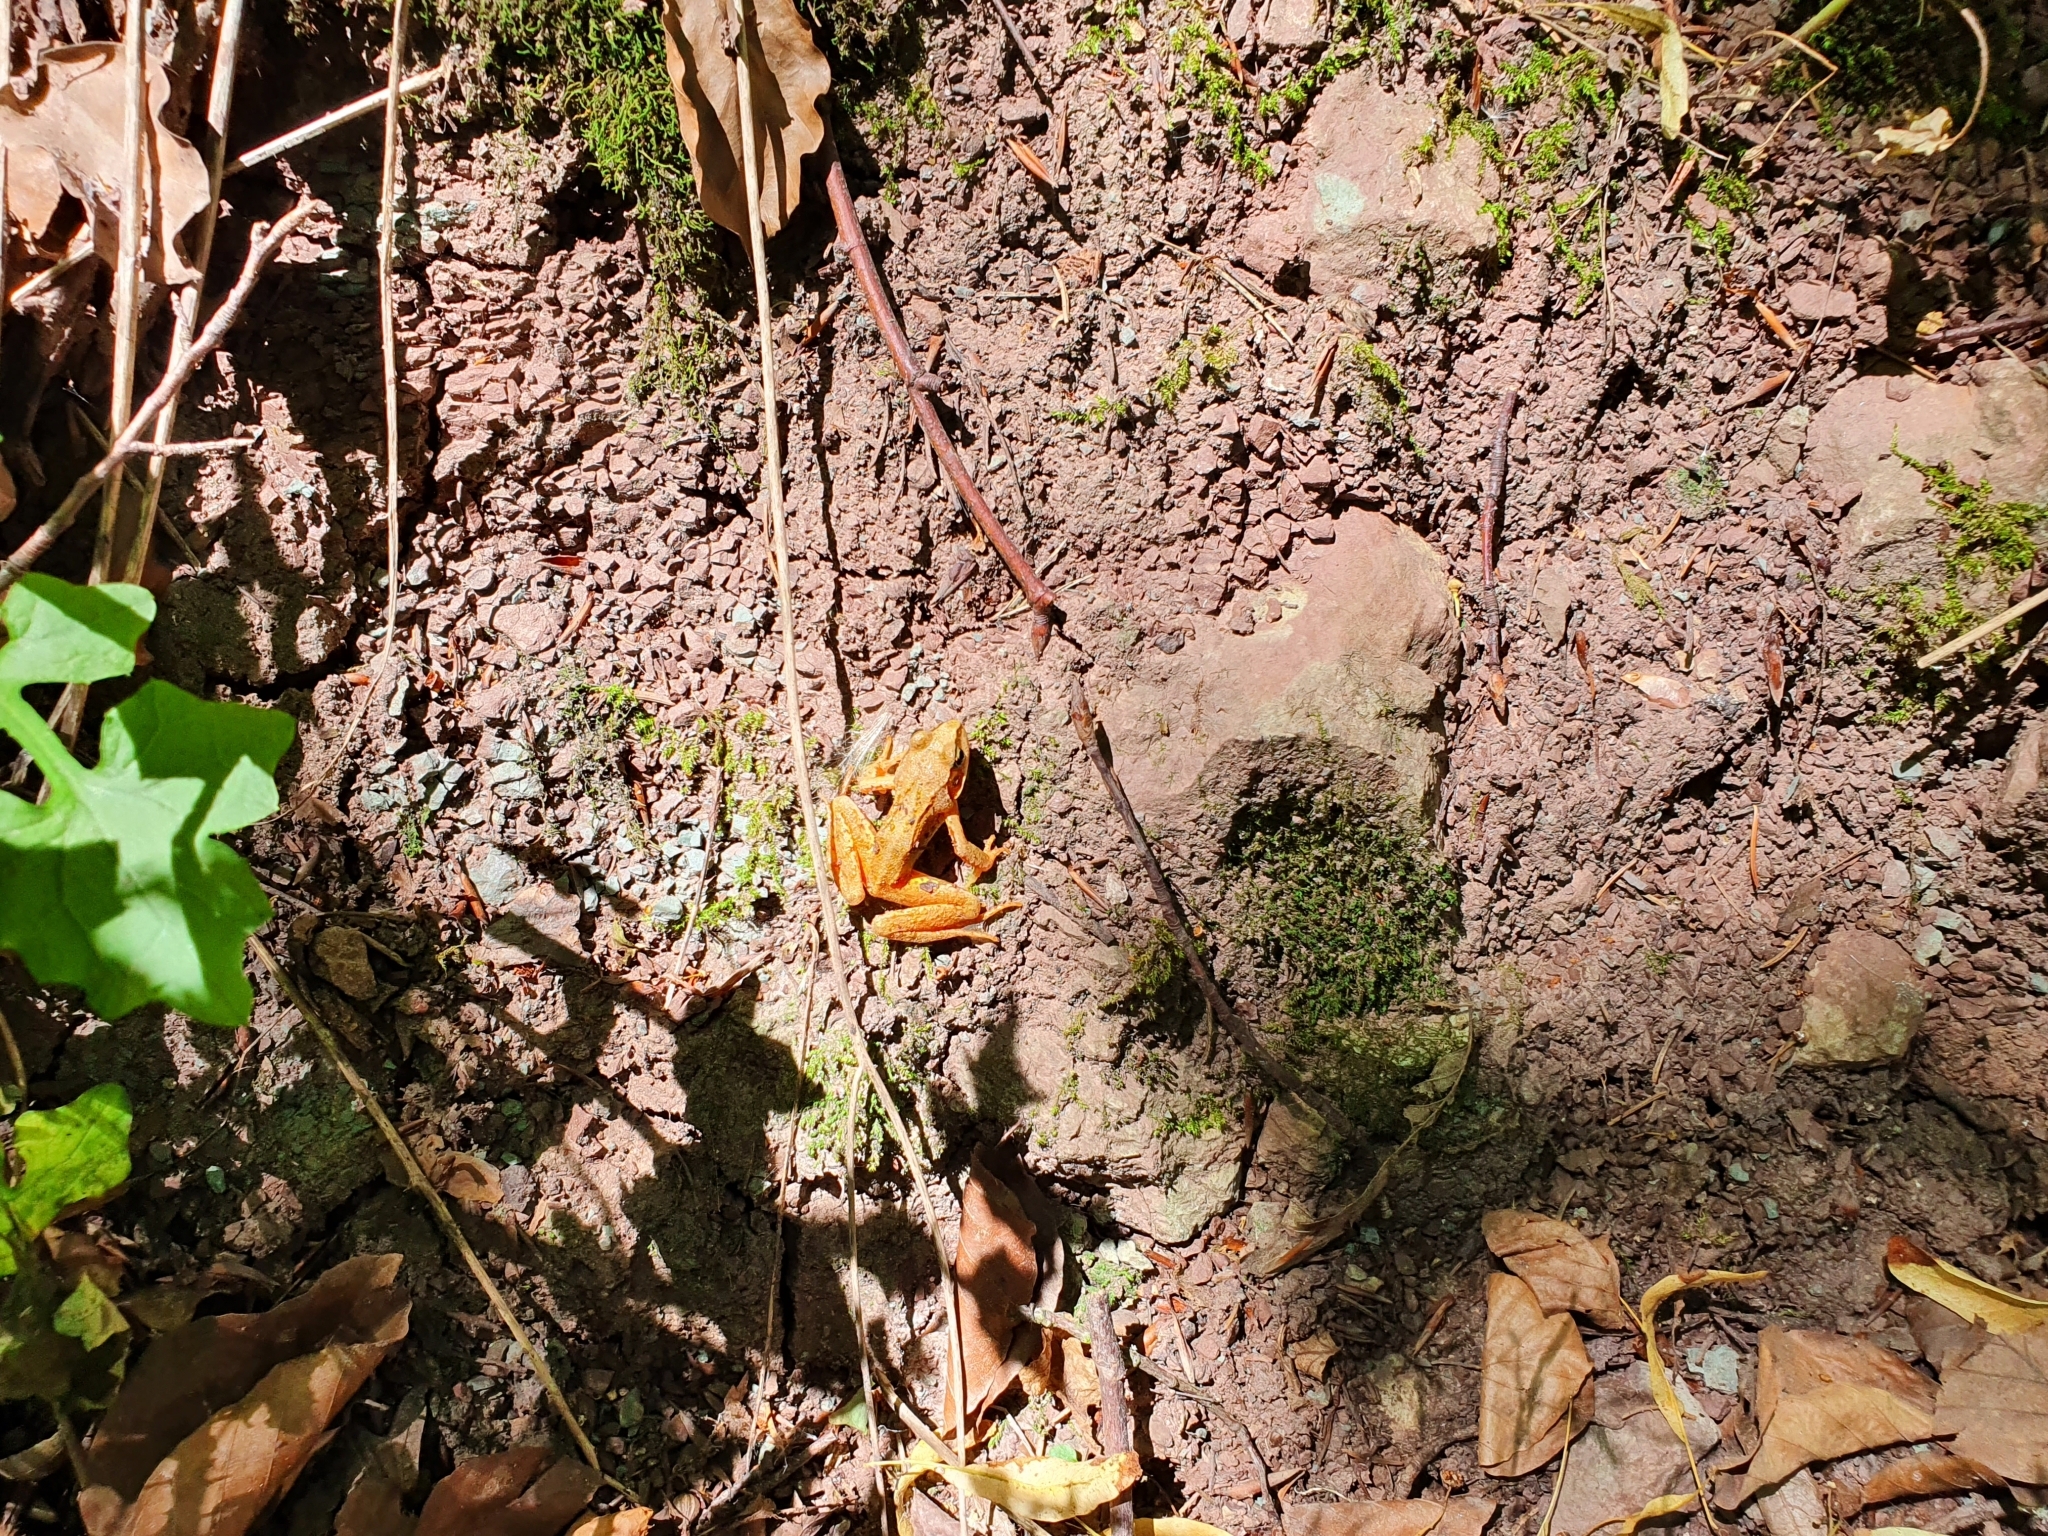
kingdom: Animalia
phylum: Chordata
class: Amphibia
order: Anura
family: Ranidae
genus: Rana
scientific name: Rana temporaria
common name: Common frog
